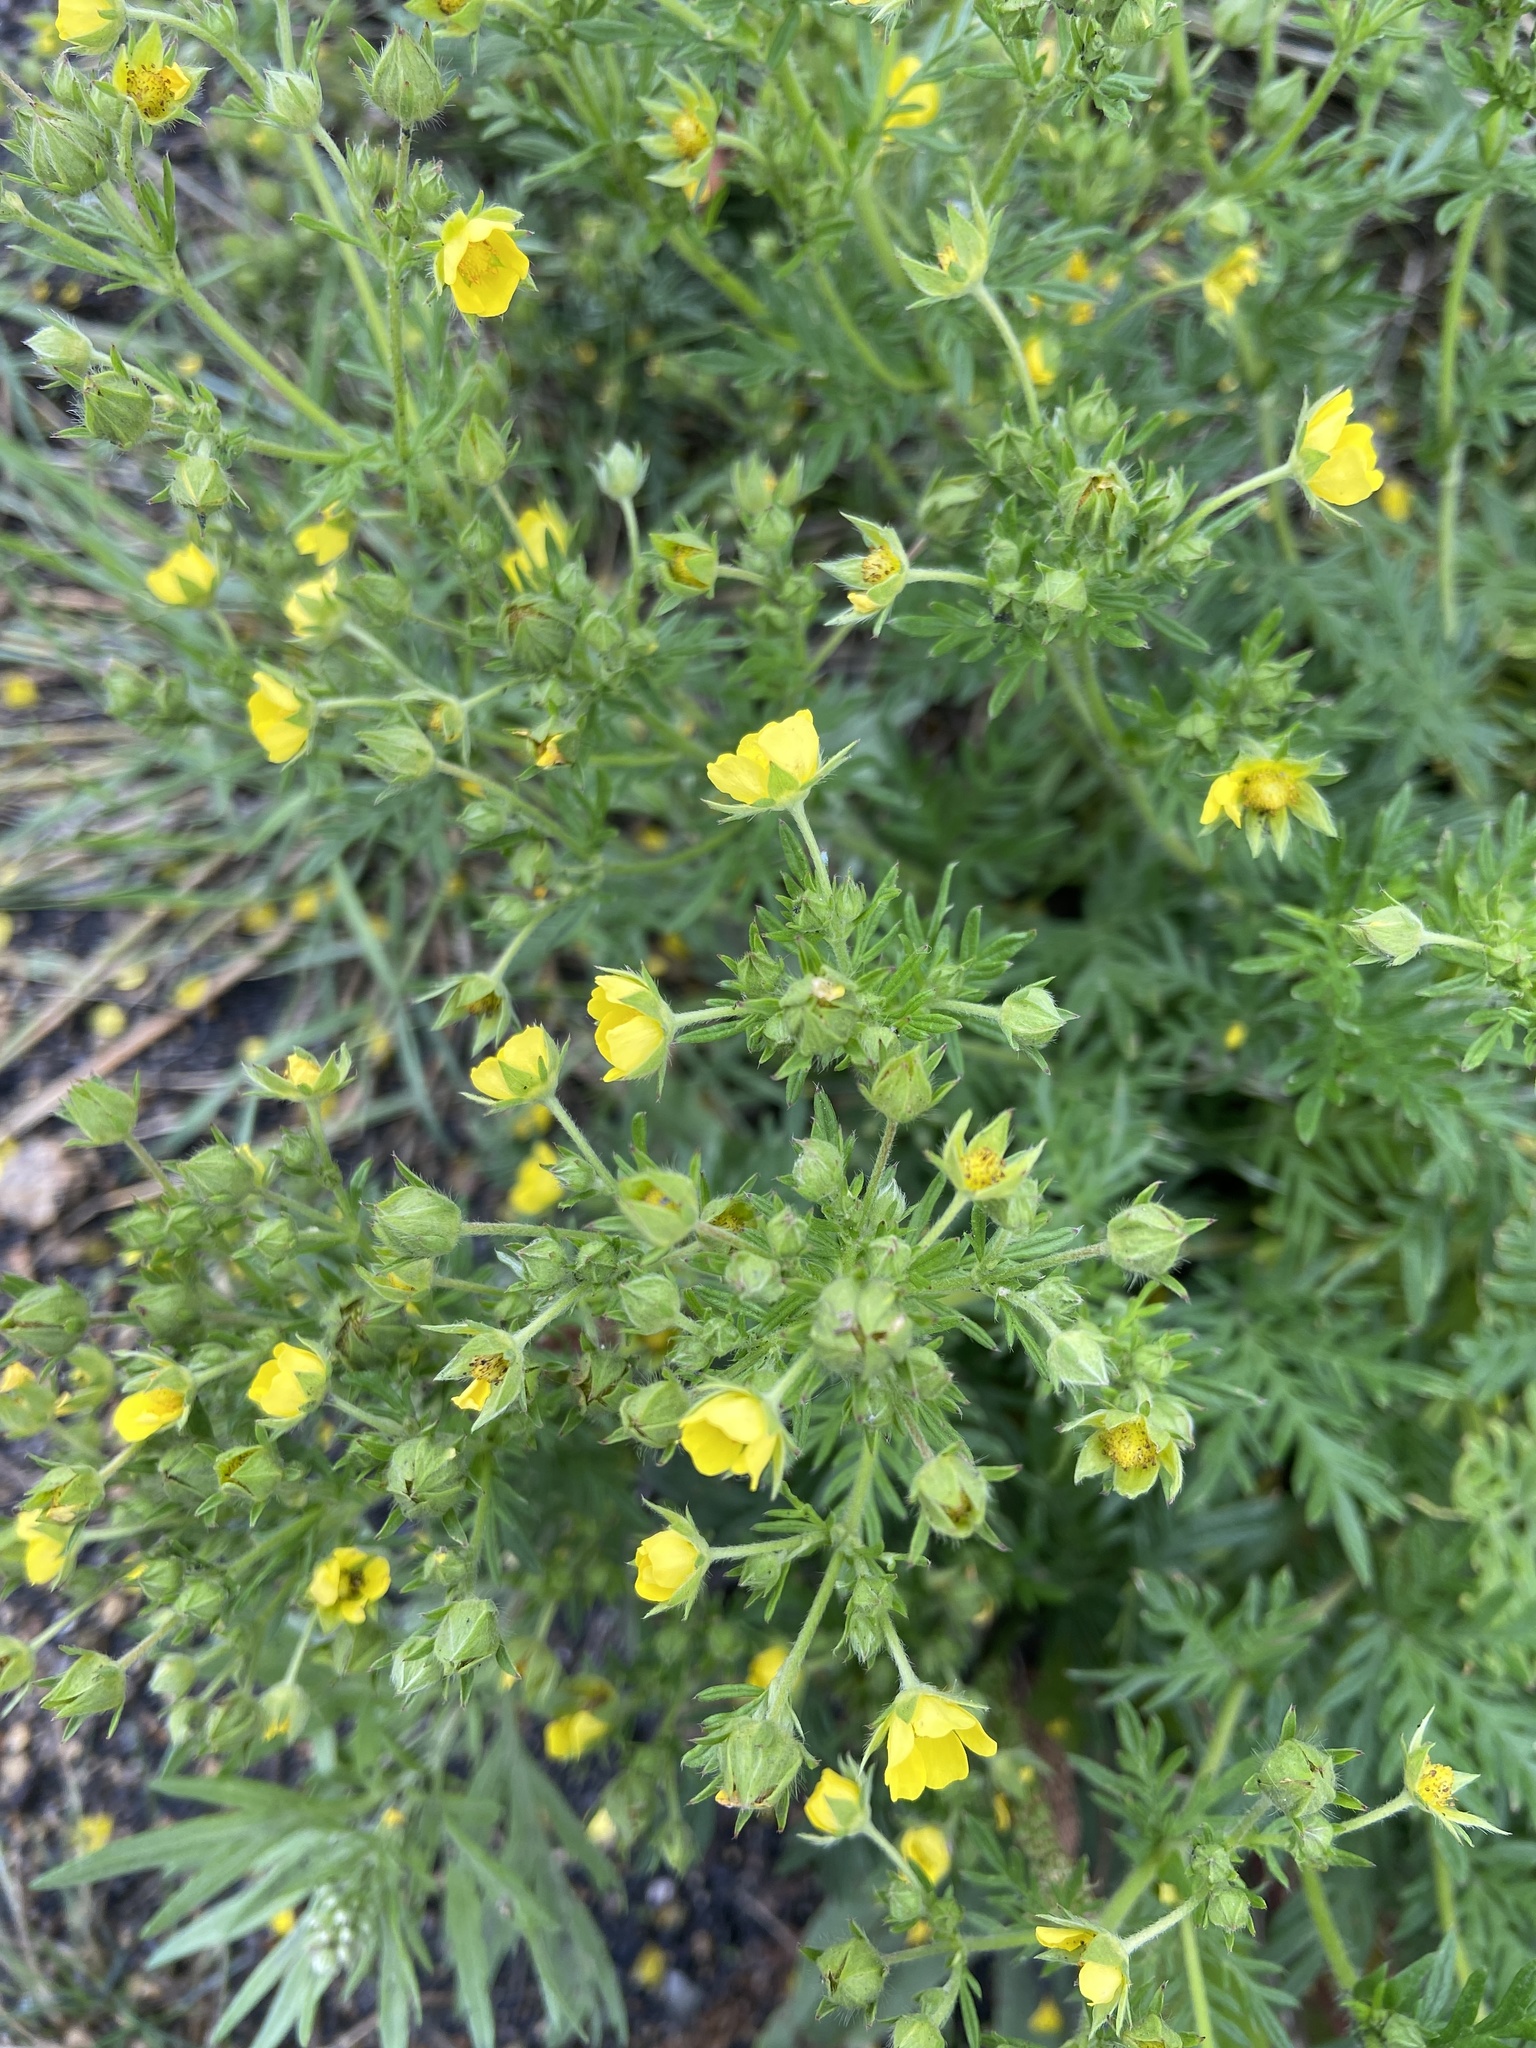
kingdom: Plantae
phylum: Tracheophyta
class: Magnoliopsida
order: Rosales
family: Rosaceae
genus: Potentilla
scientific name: Potentilla tergemina
